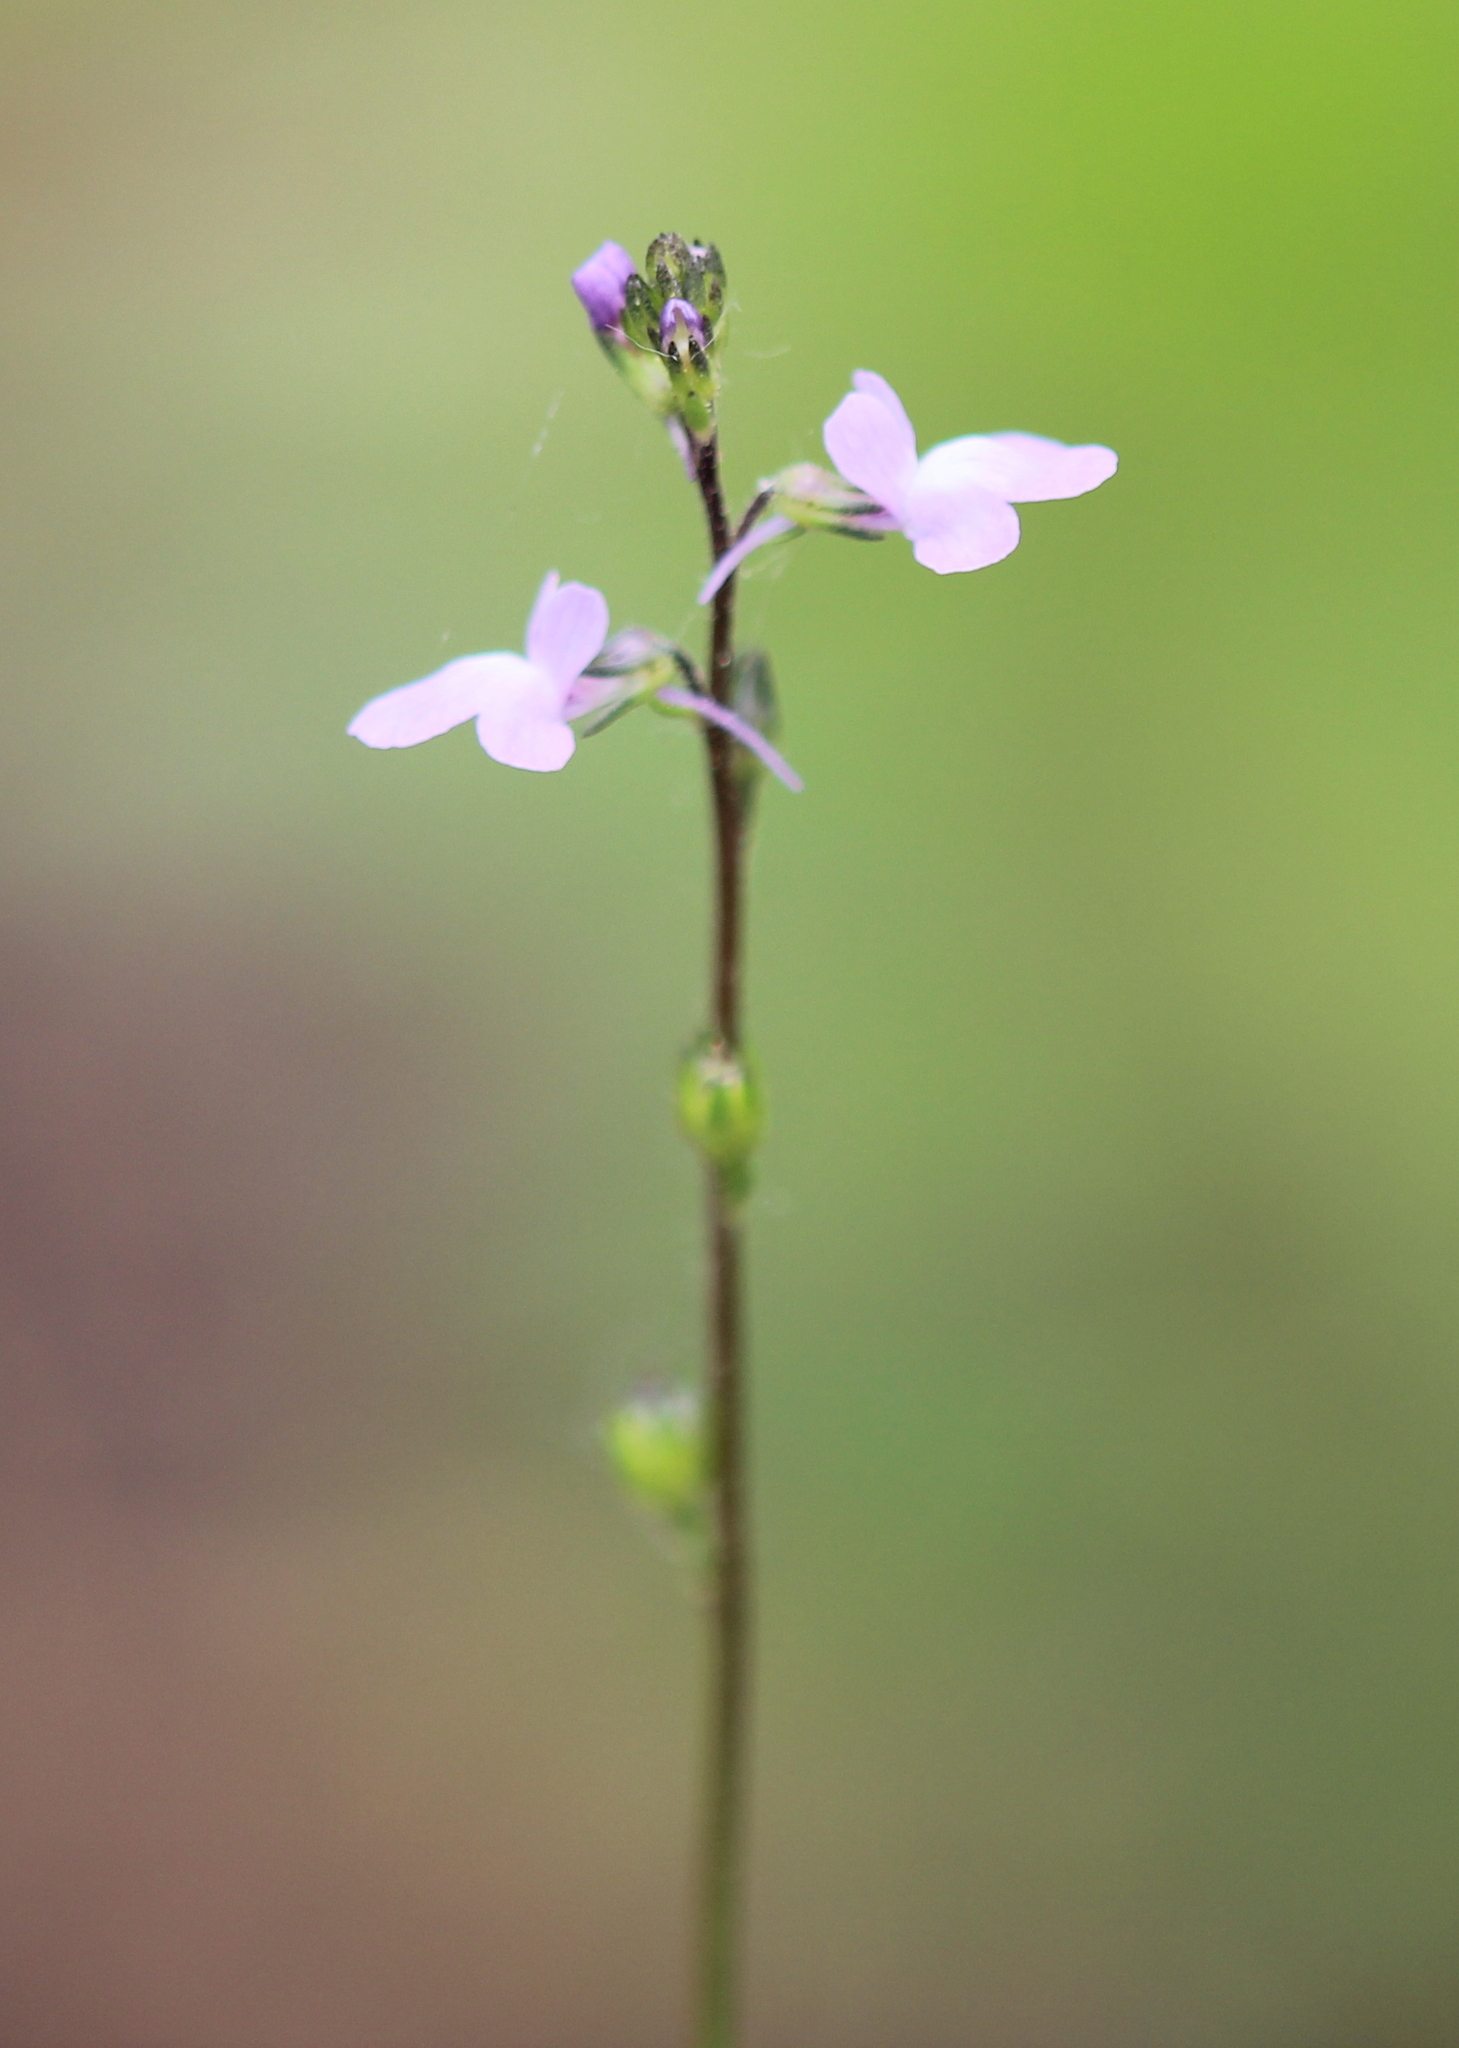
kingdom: Plantae
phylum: Tracheophyta
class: Magnoliopsida
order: Lamiales
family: Plantaginaceae
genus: Nuttallanthus
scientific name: Nuttallanthus canadensis
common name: Blue toadflax
